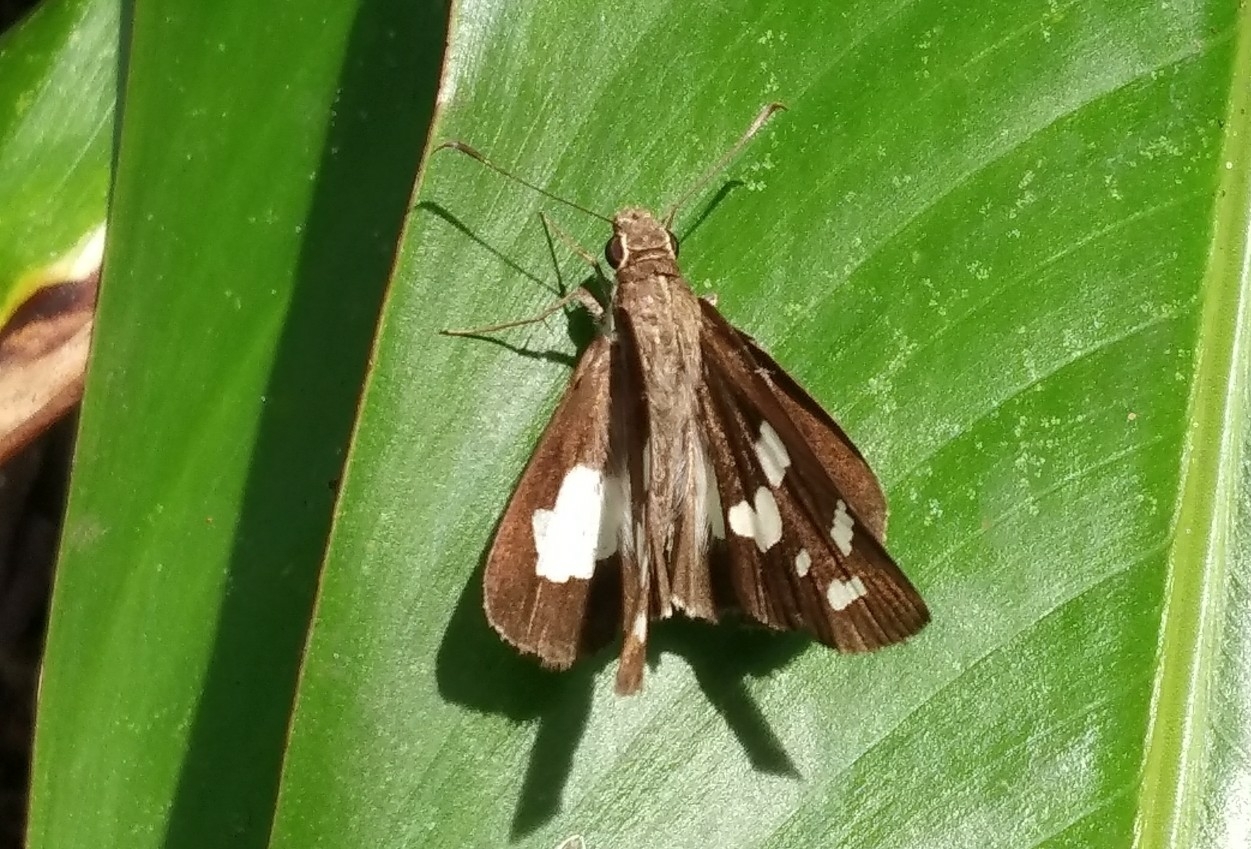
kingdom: Animalia
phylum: Arthropoda
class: Insecta
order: Lepidoptera
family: Hesperiidae
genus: Udaspes
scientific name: Udaspes folus
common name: Grass demon
